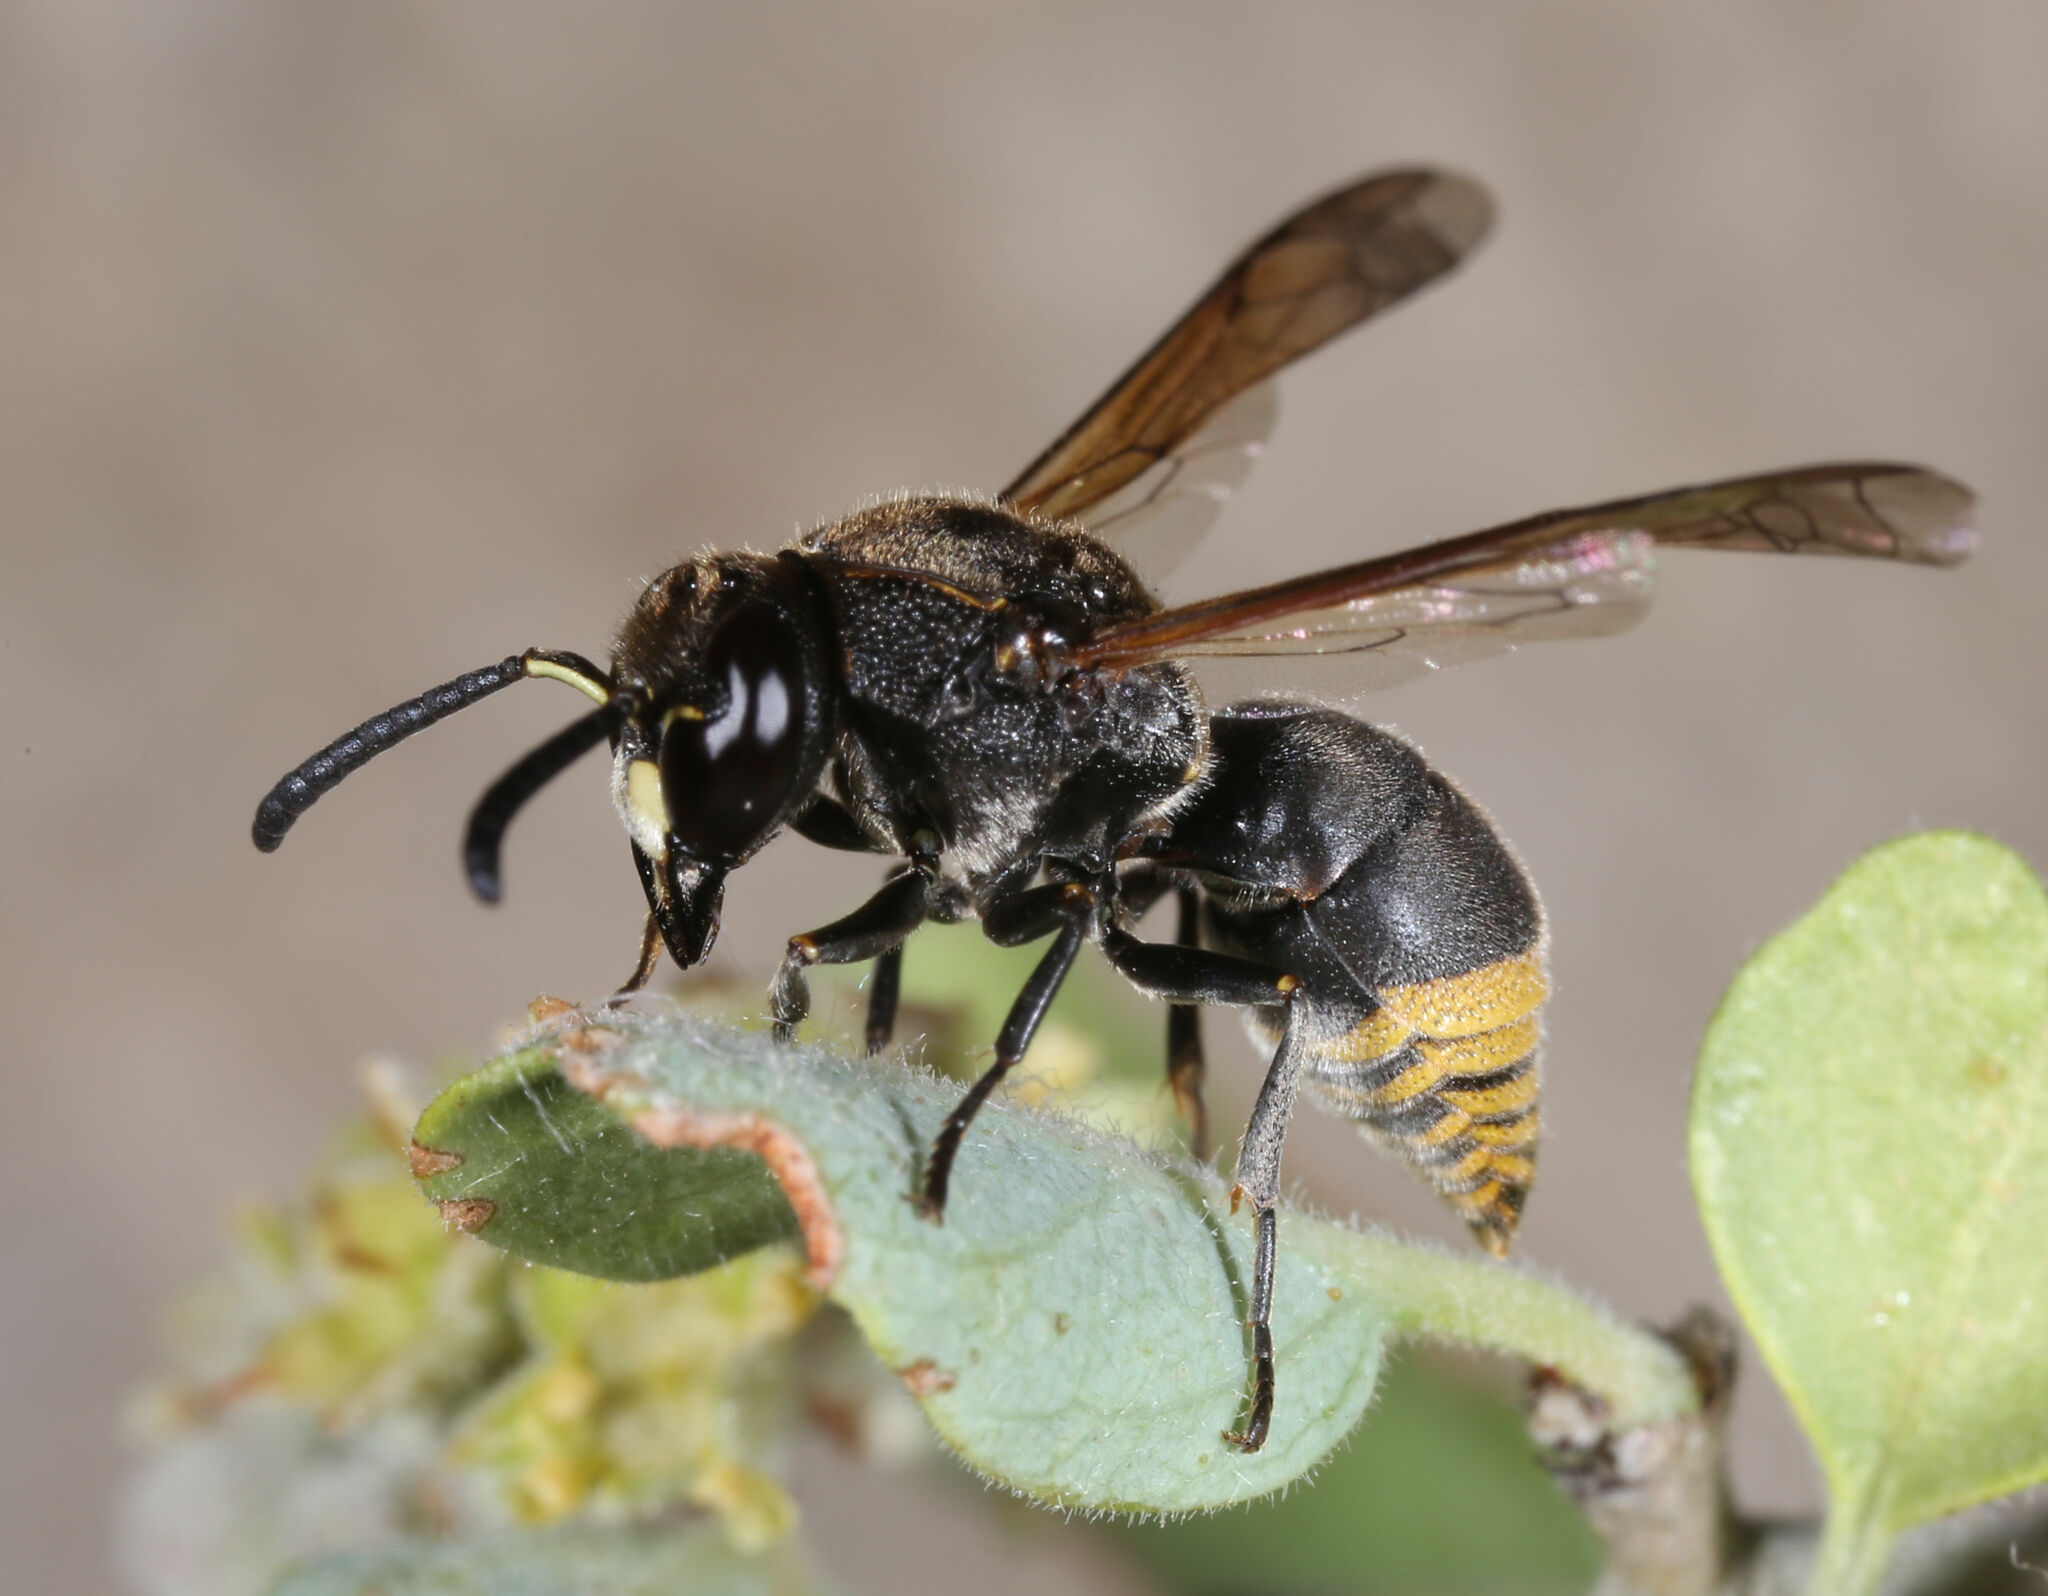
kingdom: Animalia
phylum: Arthropoda
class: Insecta
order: Hymenoptera
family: Eumenidae
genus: Pachodynerus
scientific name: Pachodynerus
